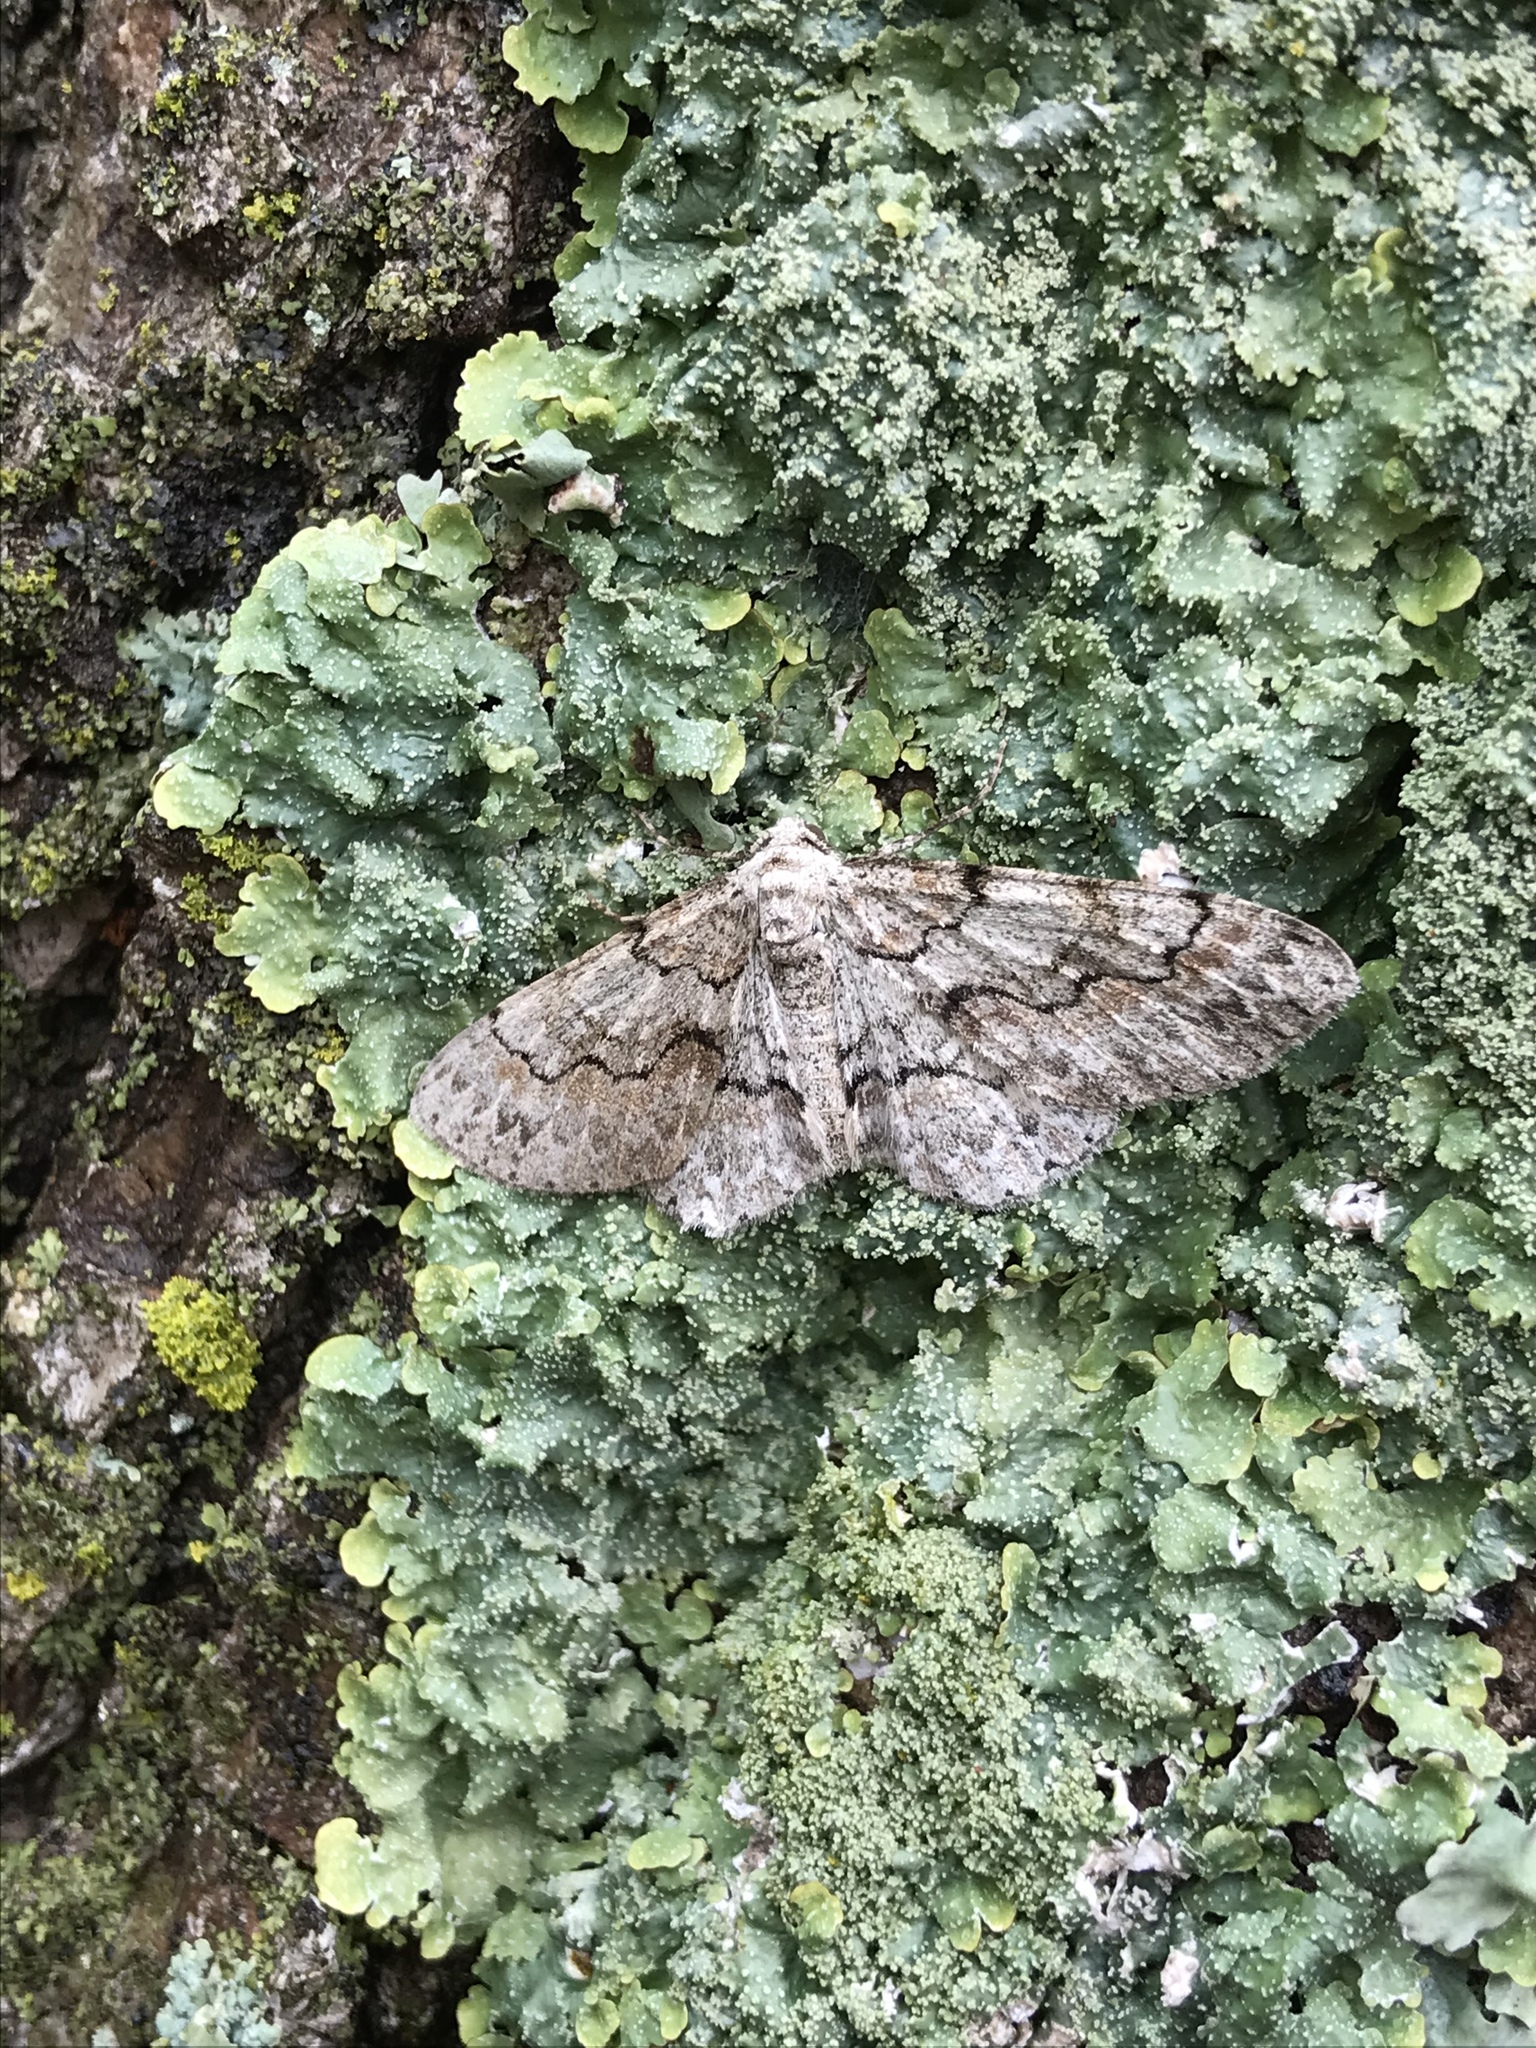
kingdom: Animalia
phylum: Arthropoda
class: Insecta
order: Lepidoptera
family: Geometridae
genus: Iridopsis
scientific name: Iridopsis defectaria
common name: Brown-shaded gray
